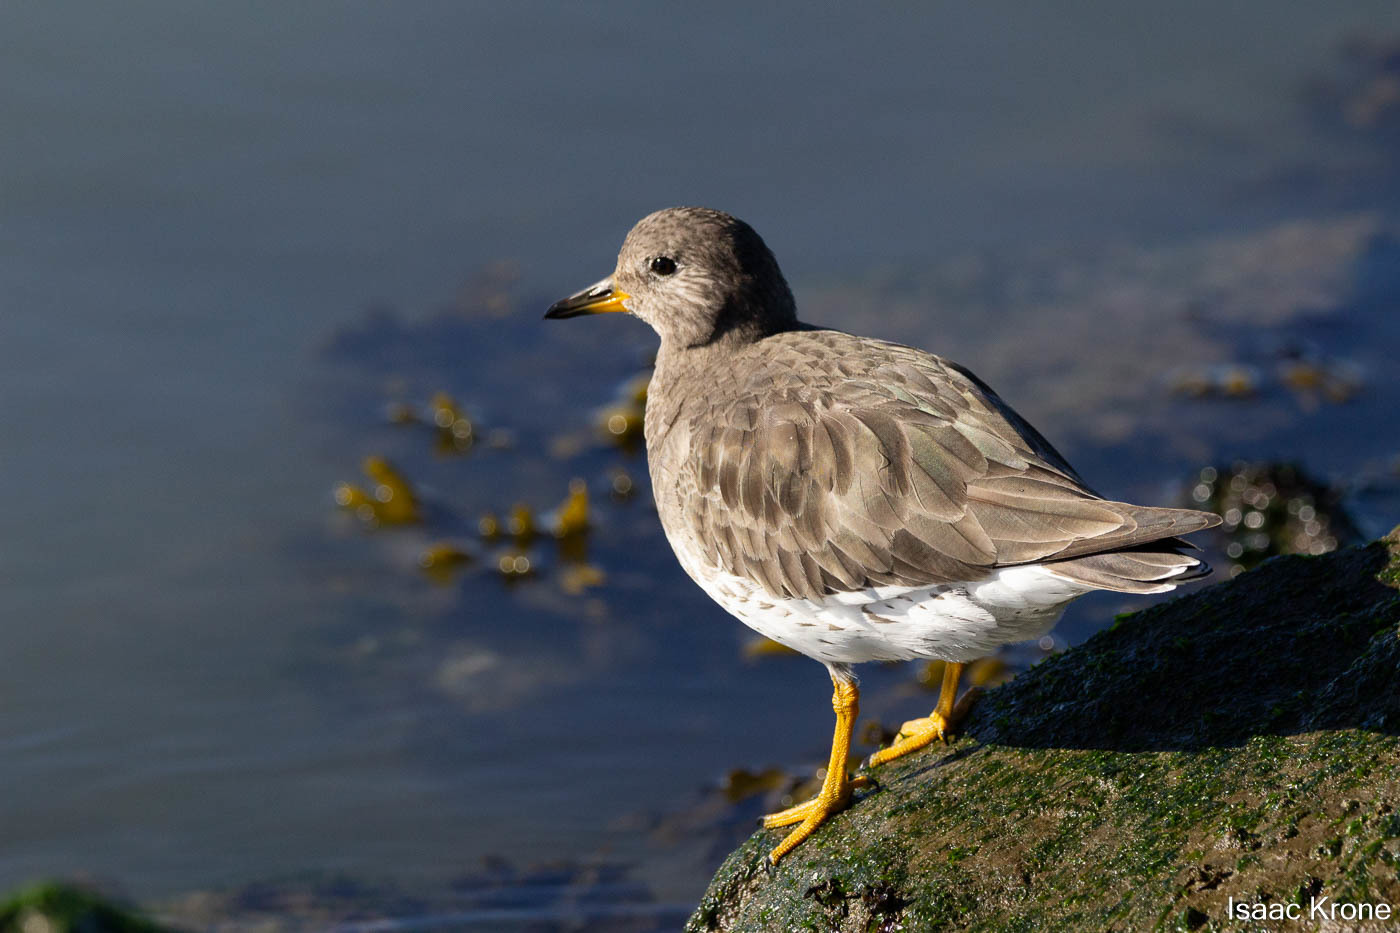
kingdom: Animalia
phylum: Chordata
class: Aves
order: Charadriiformes
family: Scolopacidae
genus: Calidris
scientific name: Calidris virgata
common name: Surfbird
